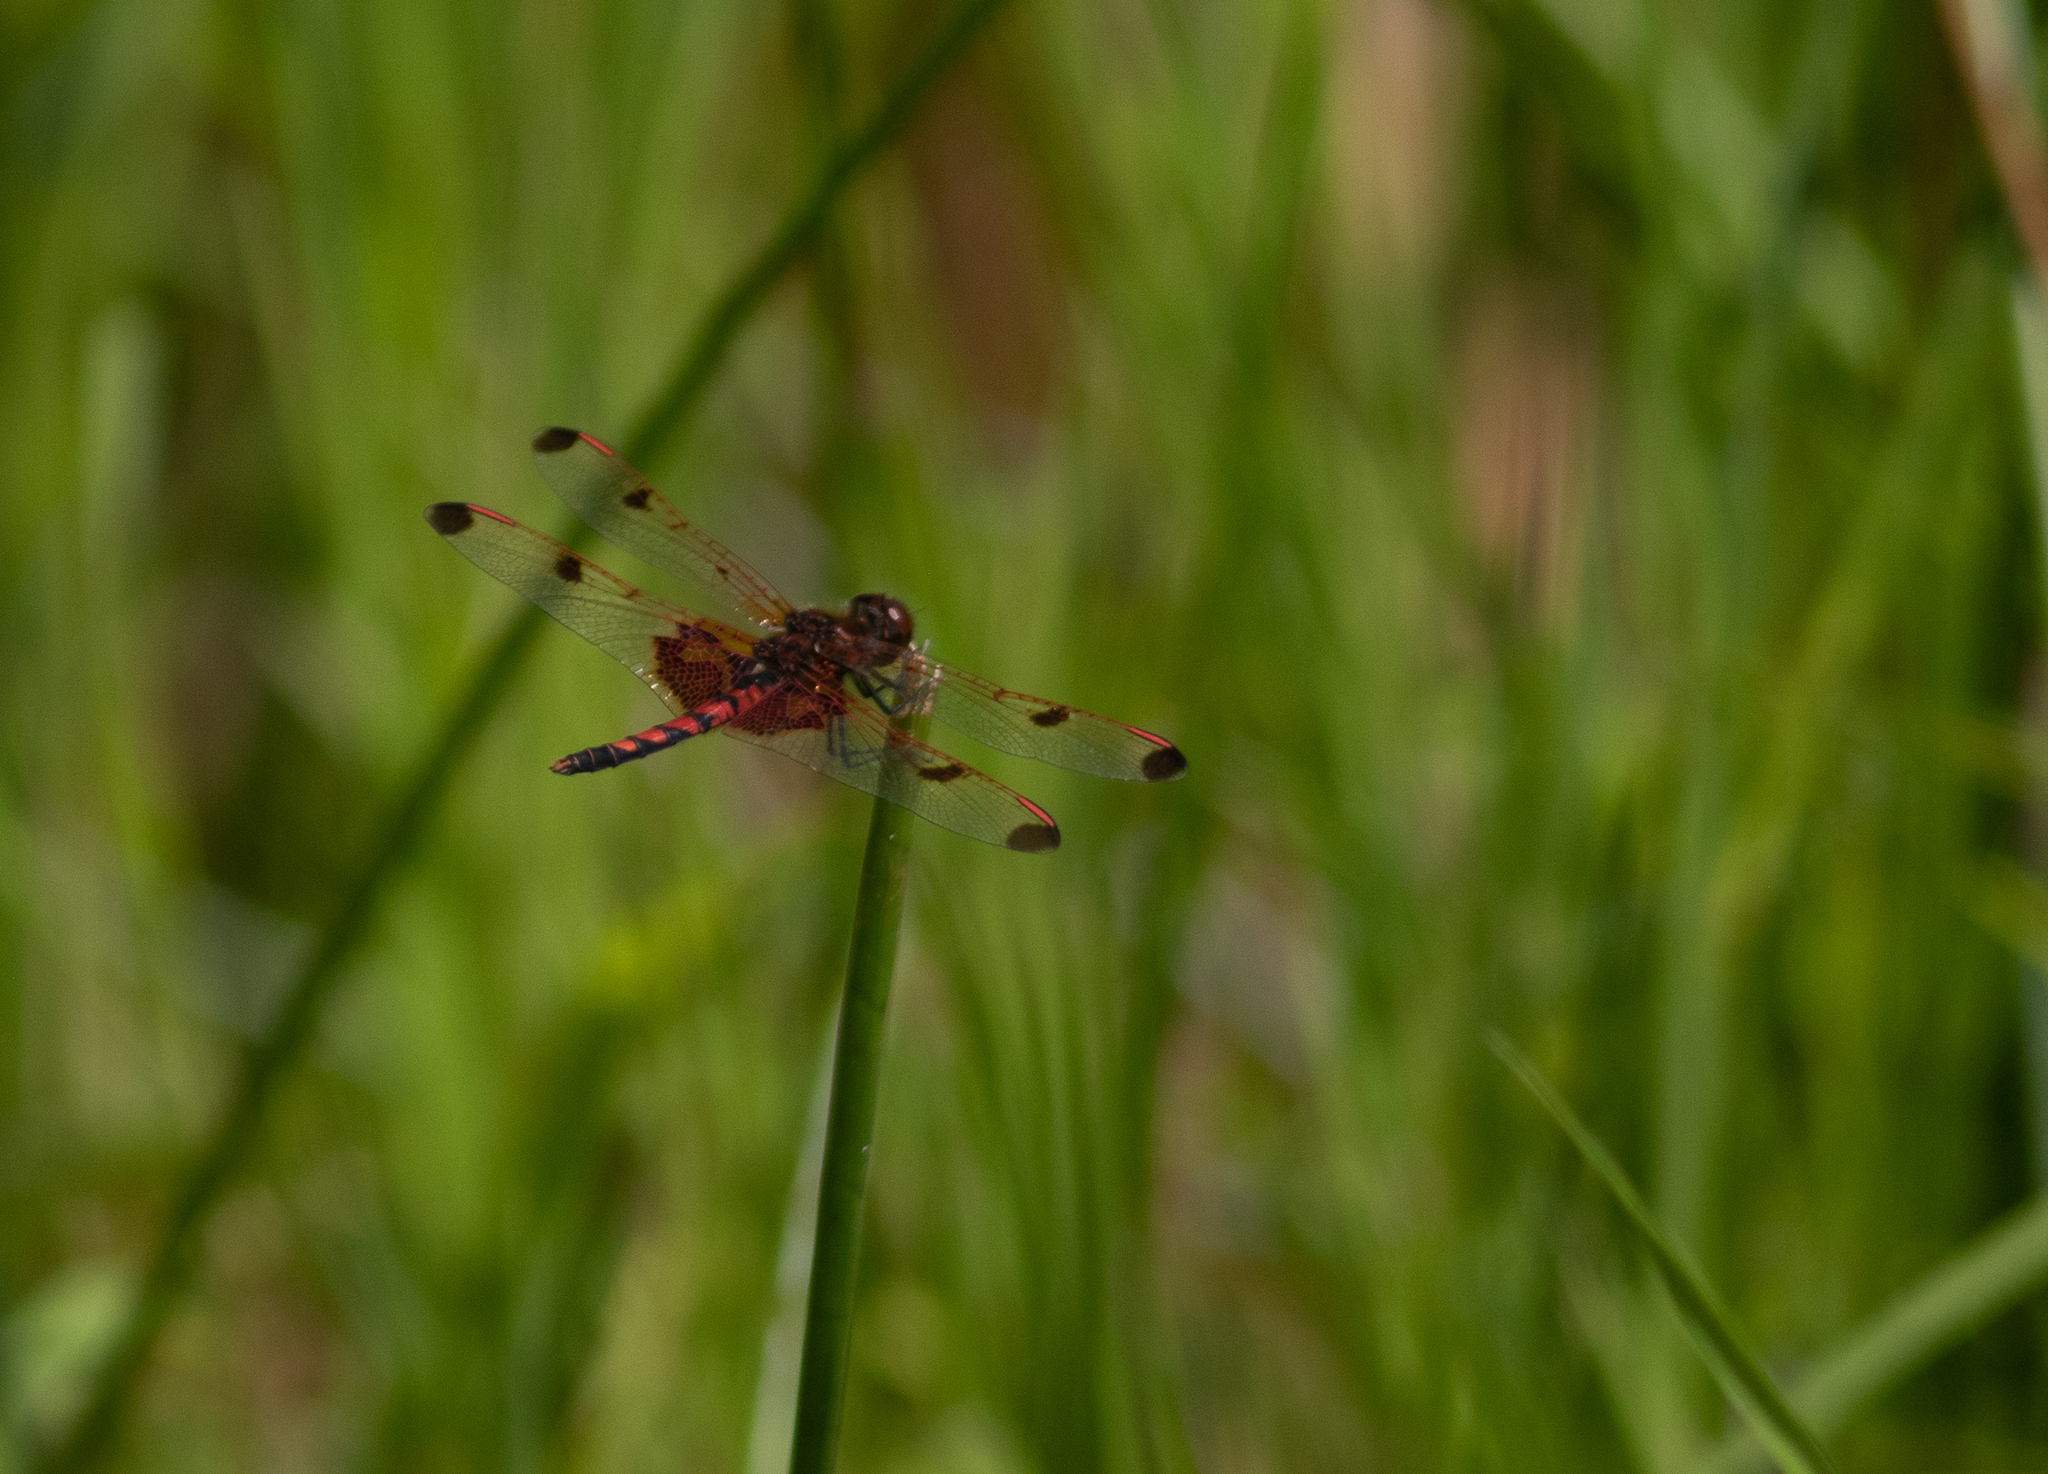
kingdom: Animalia
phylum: Arthropoda
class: Insecta
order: Odonata
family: Libellulidae
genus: Celithemis
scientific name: Celithemis elisa
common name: Calico pennant
